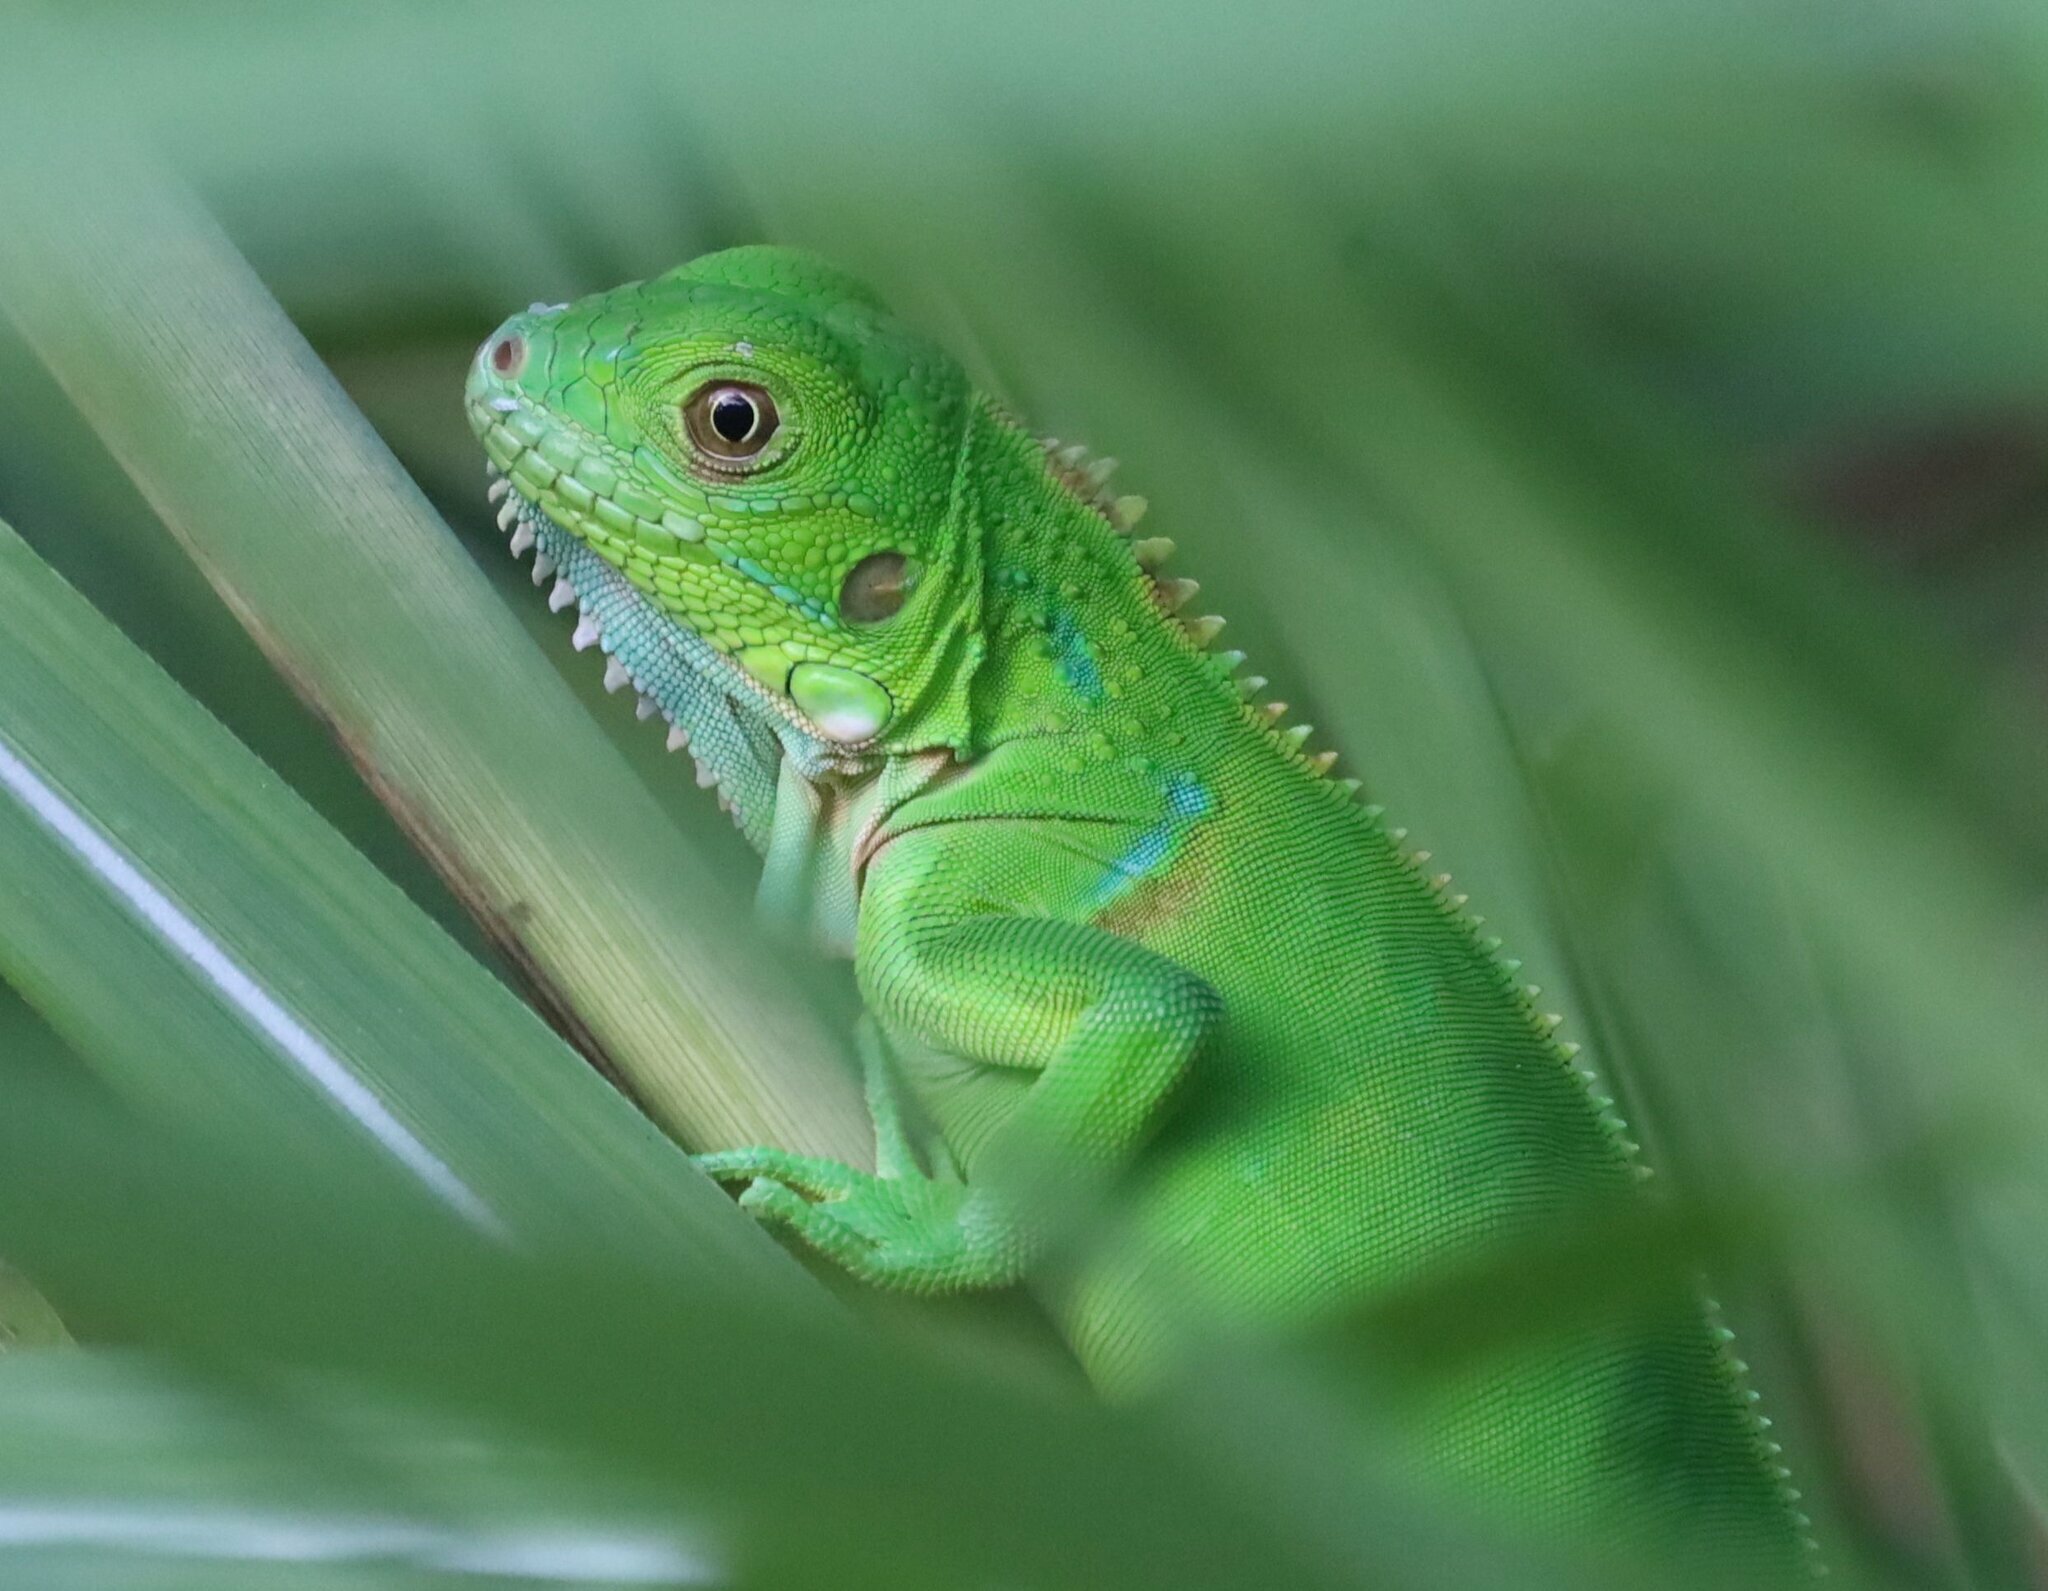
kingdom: Animalia
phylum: Chordata
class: Squamata
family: Iguanidae
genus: Iguana
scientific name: Iguana iguana
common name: Green iguana
